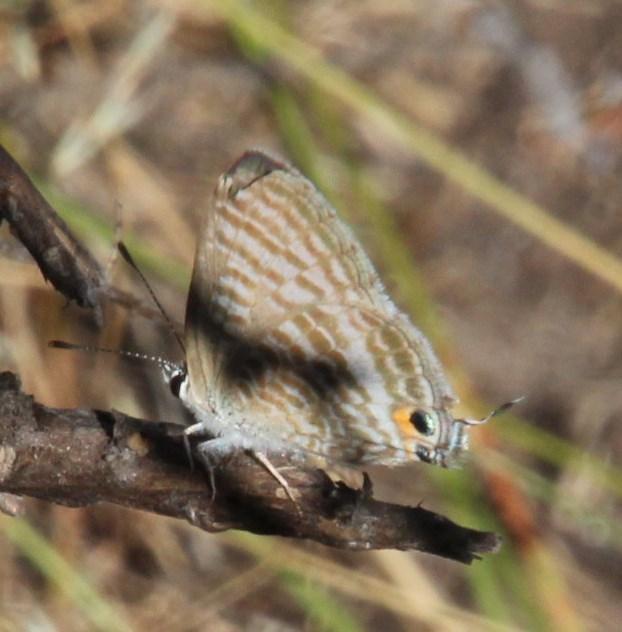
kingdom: Animalia
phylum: Arthropoda
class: Insecta
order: Lepidoptera
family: Lycaenidae
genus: Lampides
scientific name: Lampides boeticus
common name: Long-tailed blue
